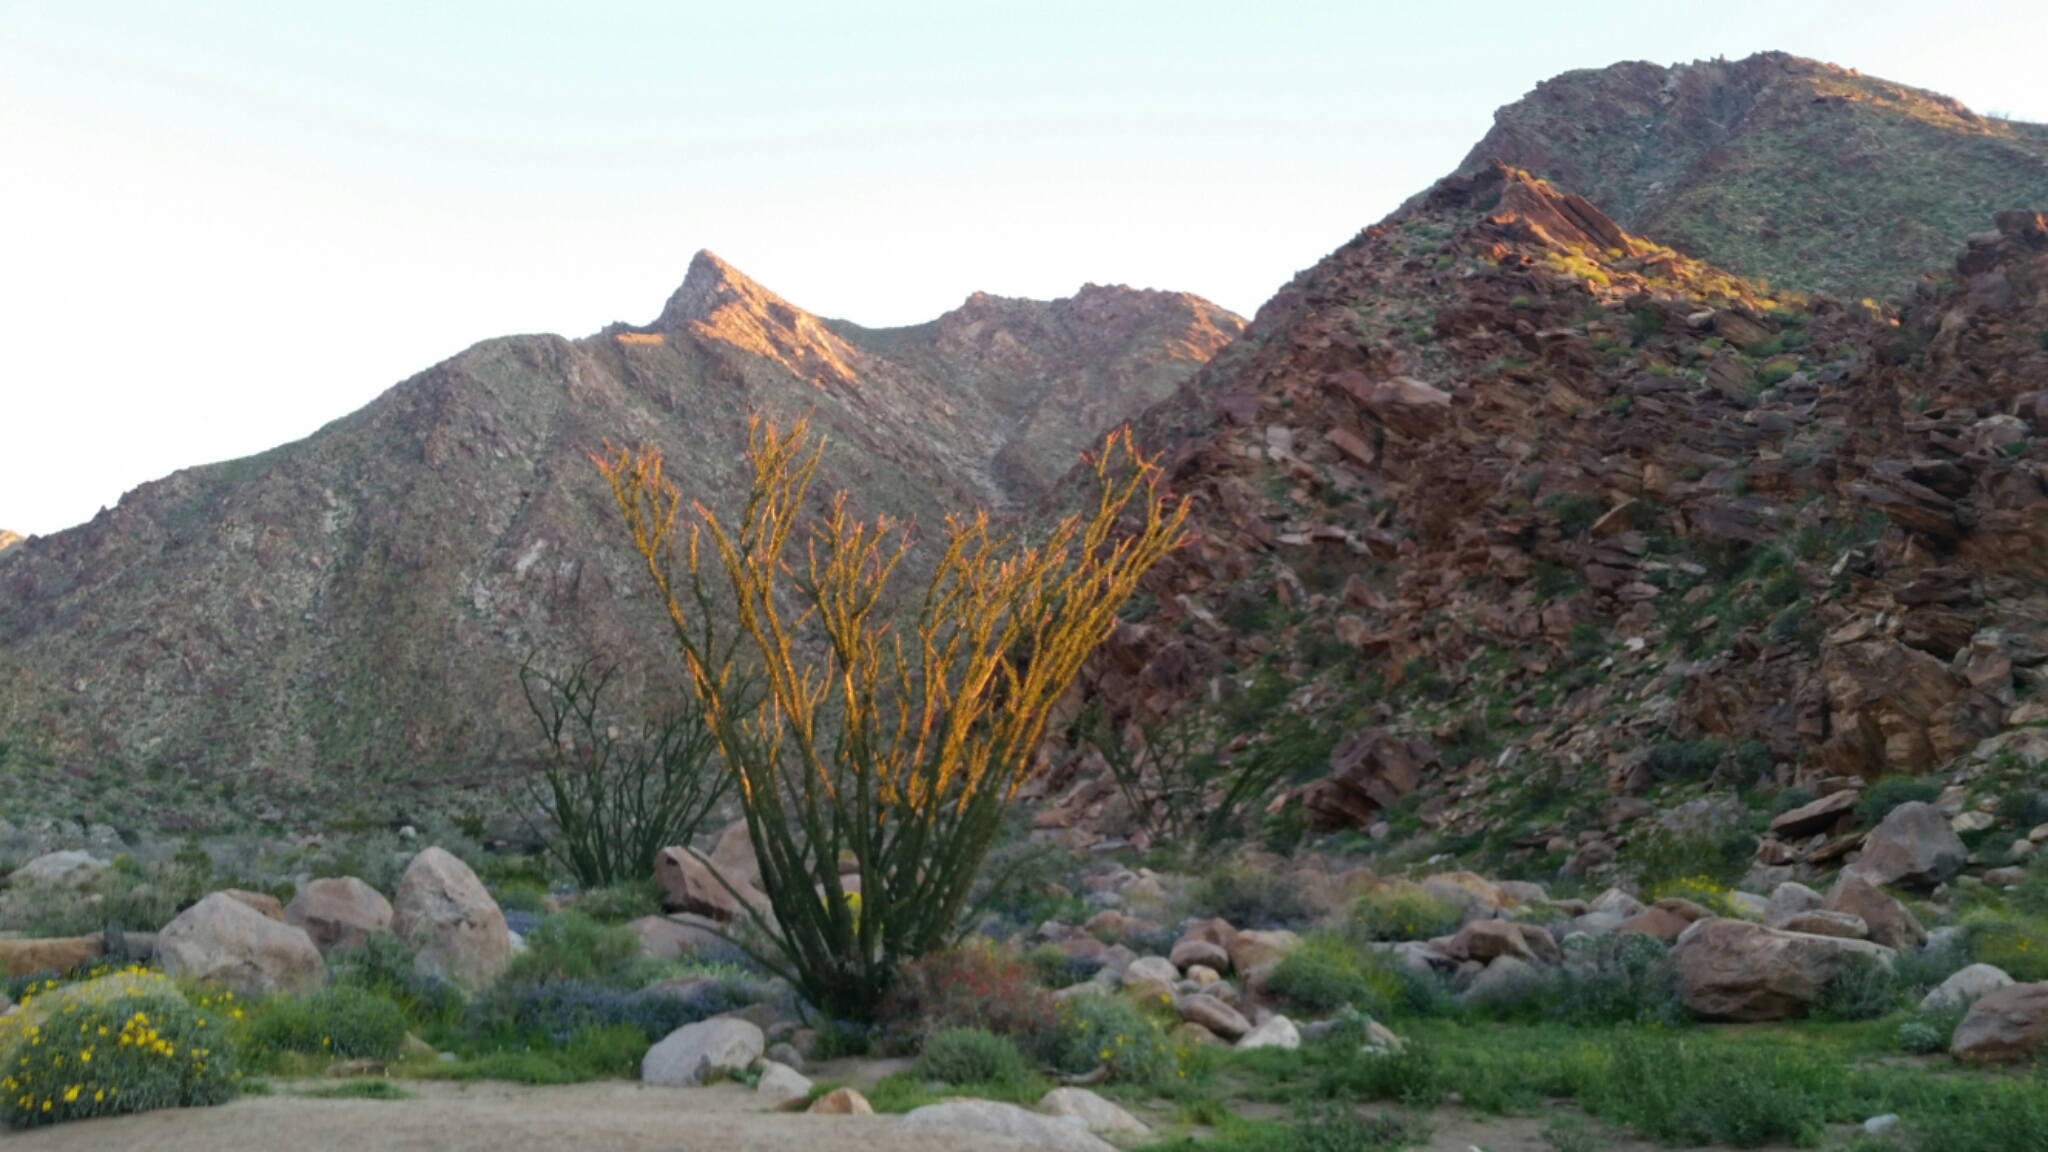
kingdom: Plantae
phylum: Tracheophyta
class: Magnoliopsida
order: Ericales
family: Fouquieriaceae
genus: Fouquieria
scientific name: Fouquieria splendens
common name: Vine-cactus
